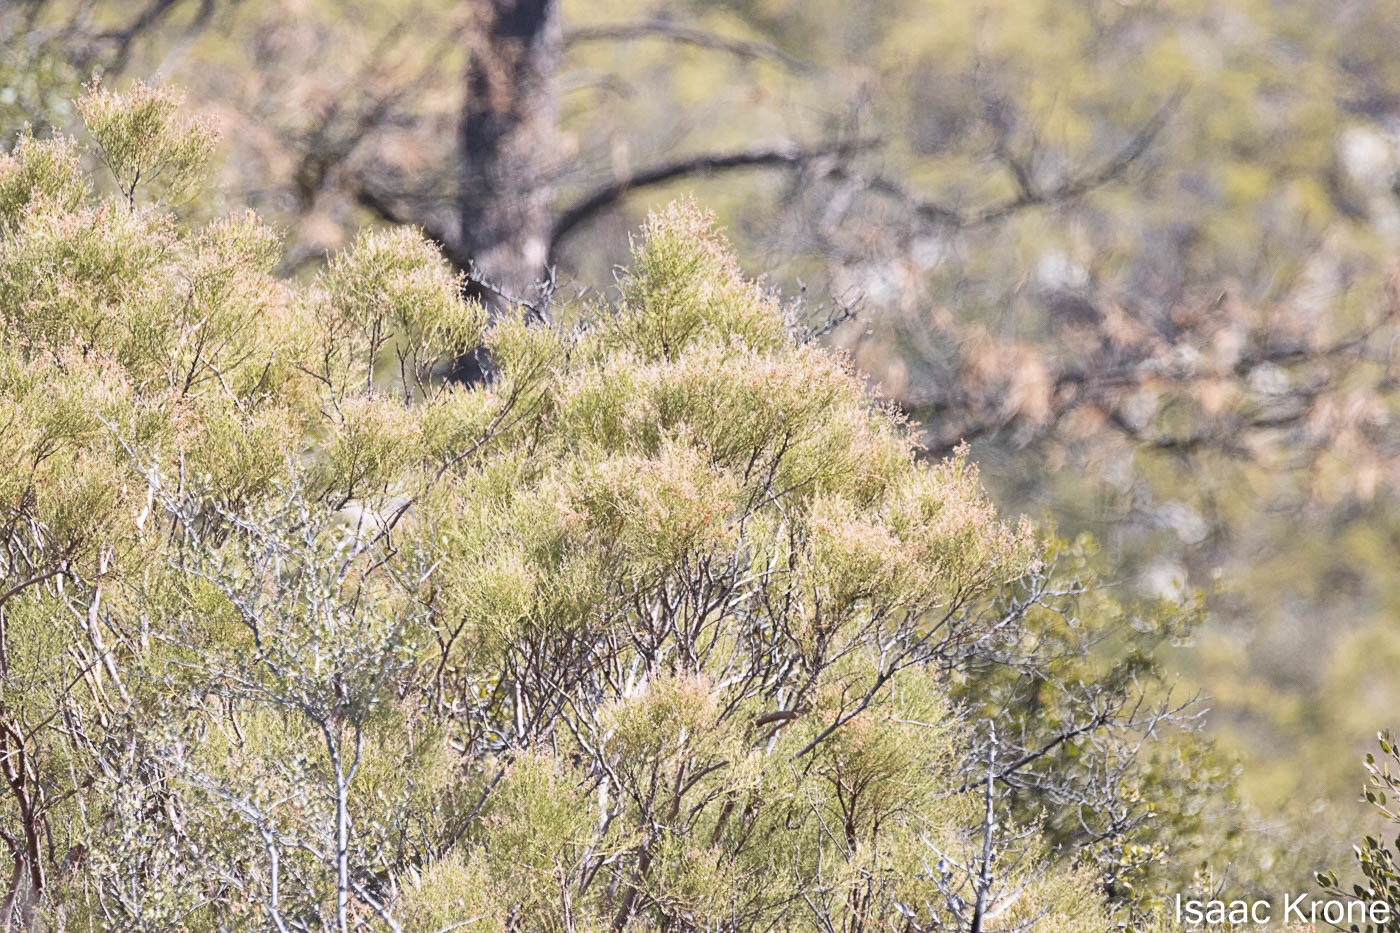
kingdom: Plantae
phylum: Tracheophyta
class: Magnoliopsida
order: Rosales
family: Rosaceae
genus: Adenostoma
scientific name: Adenostoma sparsifolium
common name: Red shank
